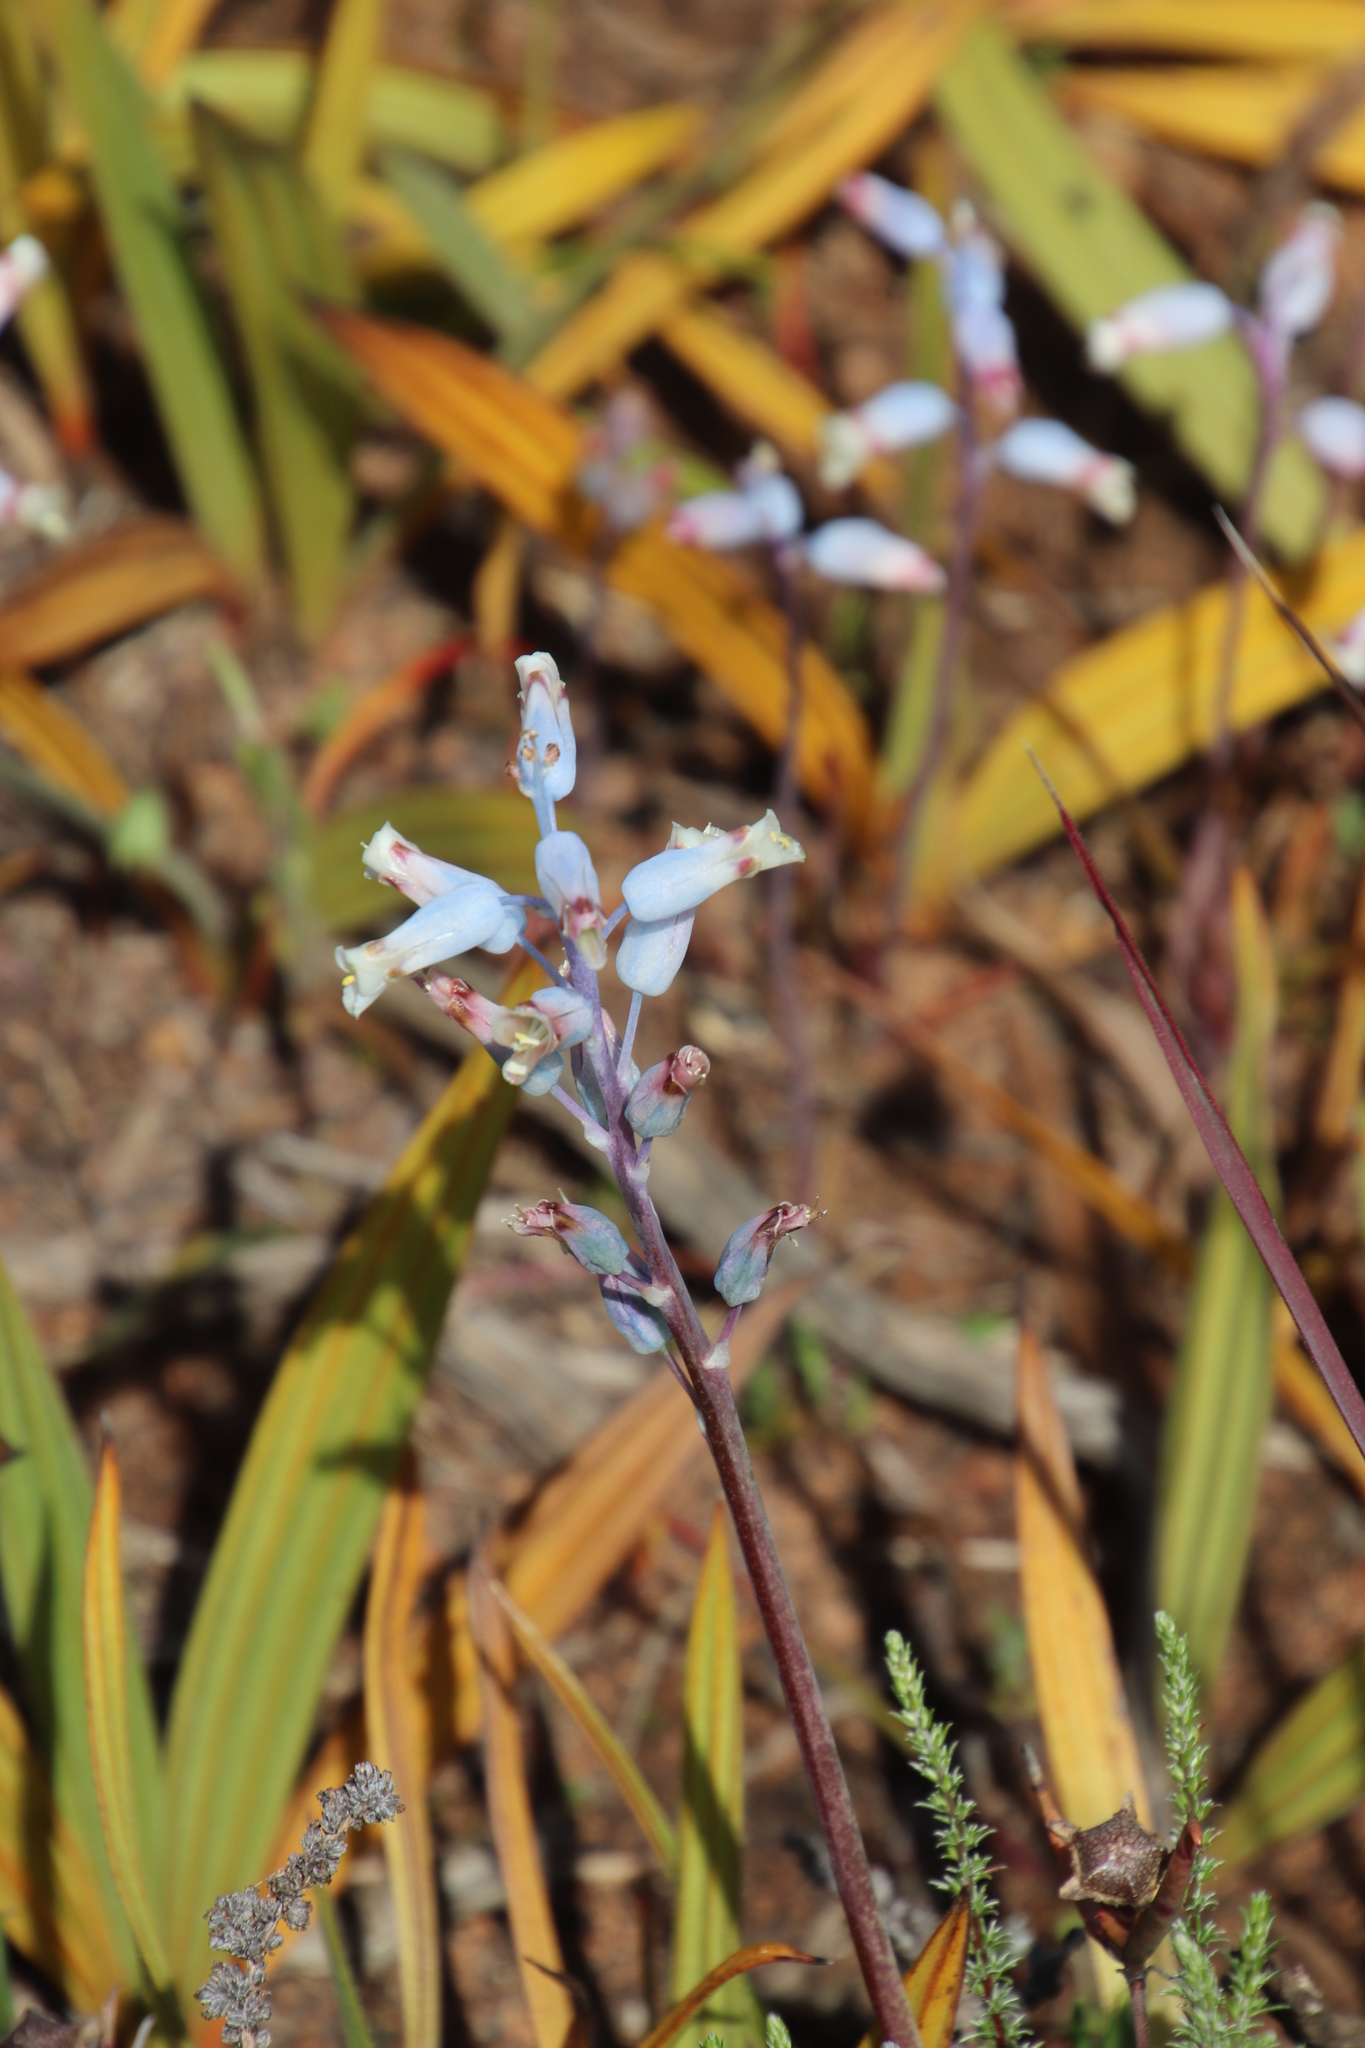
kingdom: Plantae
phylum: Tracheophyta
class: Liliopsida
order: Asparagales
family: Asparagaceae
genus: Lachenalia
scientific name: Lachenalia unifolia
